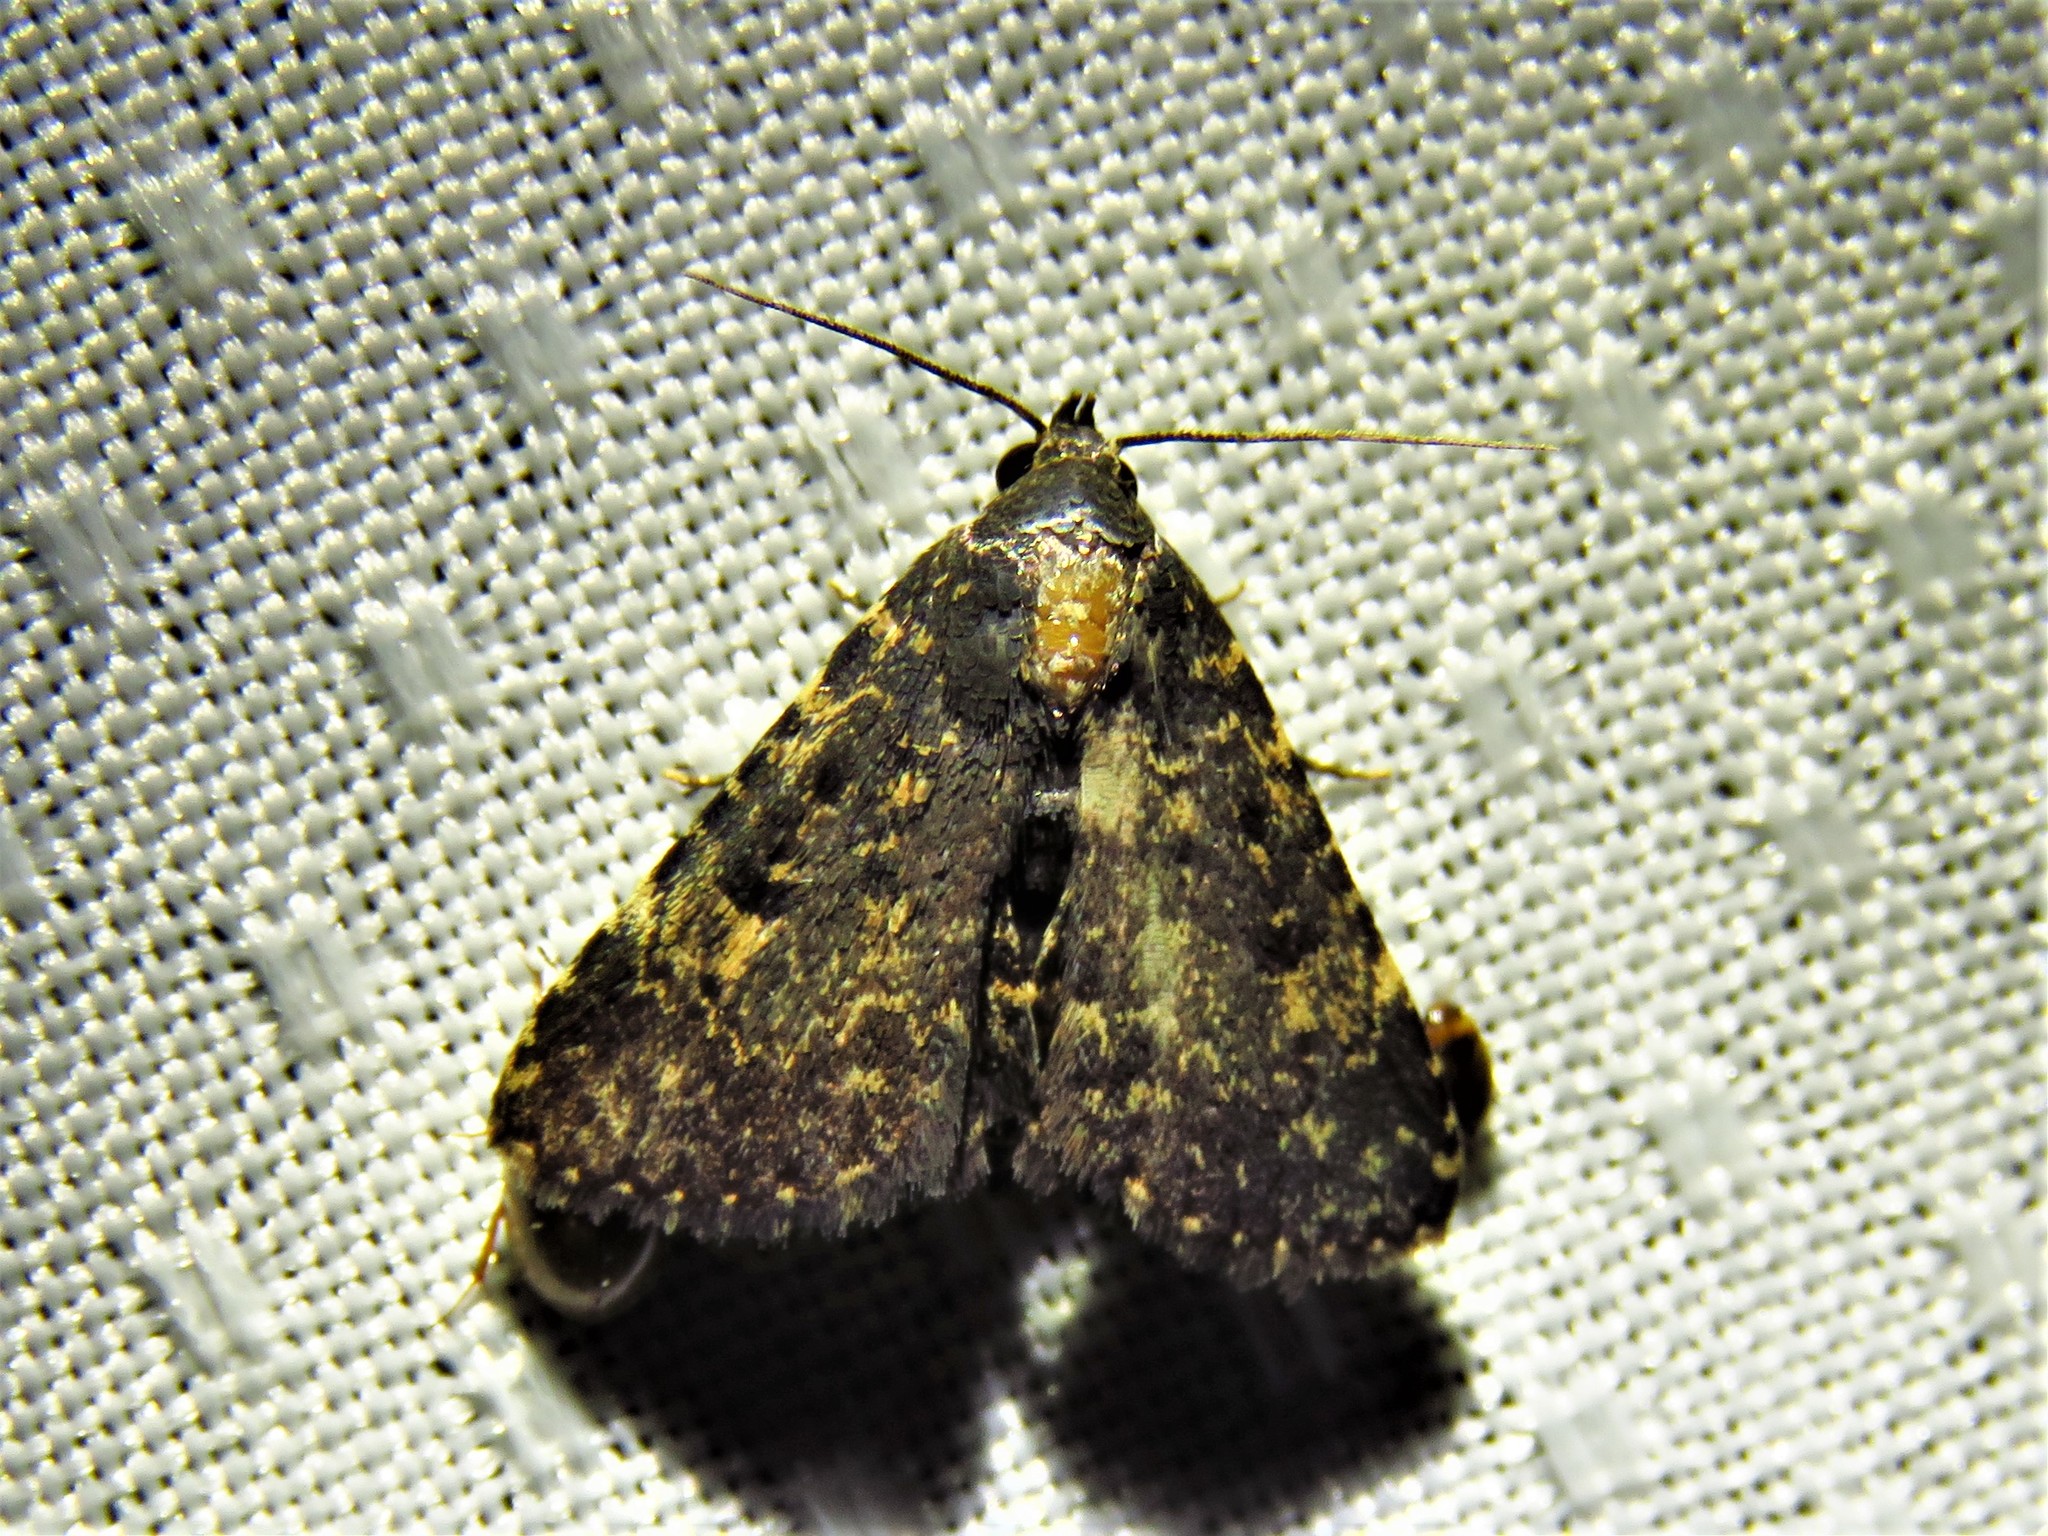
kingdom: Animalia
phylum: Arthropoda
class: Insecta
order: Lepidoptera
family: Erebidae
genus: Metalectra
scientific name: Metalectra diabolica
